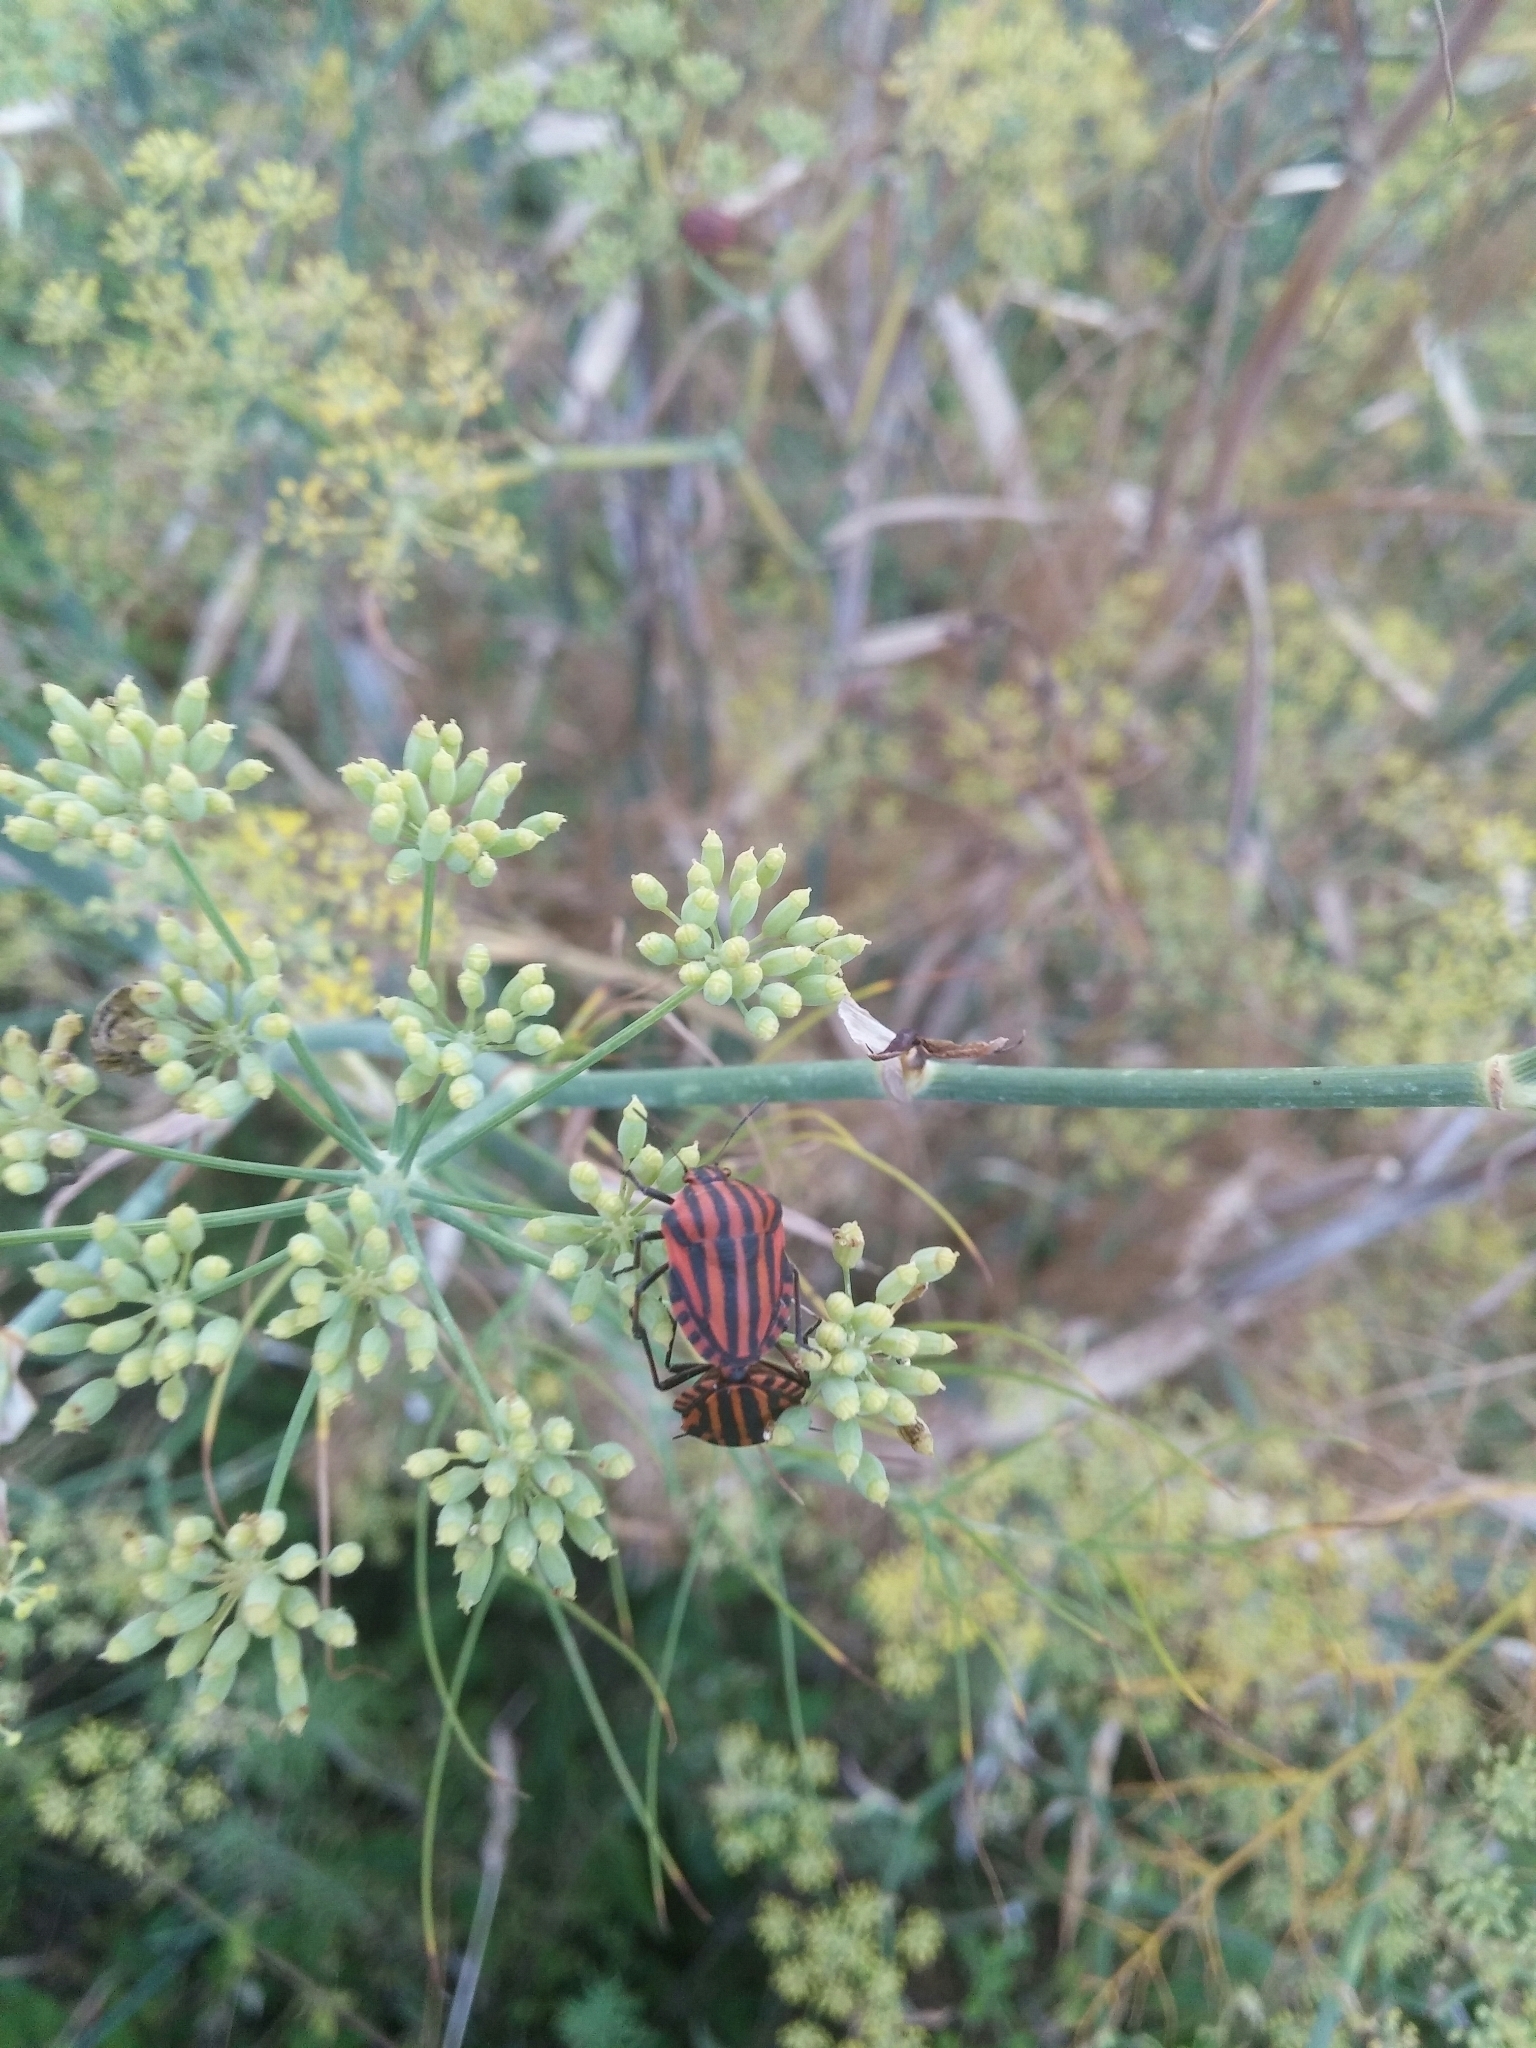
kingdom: Animalia
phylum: Arthropoda
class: Insecta
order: Hemiptera
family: Pentatomidae
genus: Graphosoma
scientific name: Graphosoma italicum
